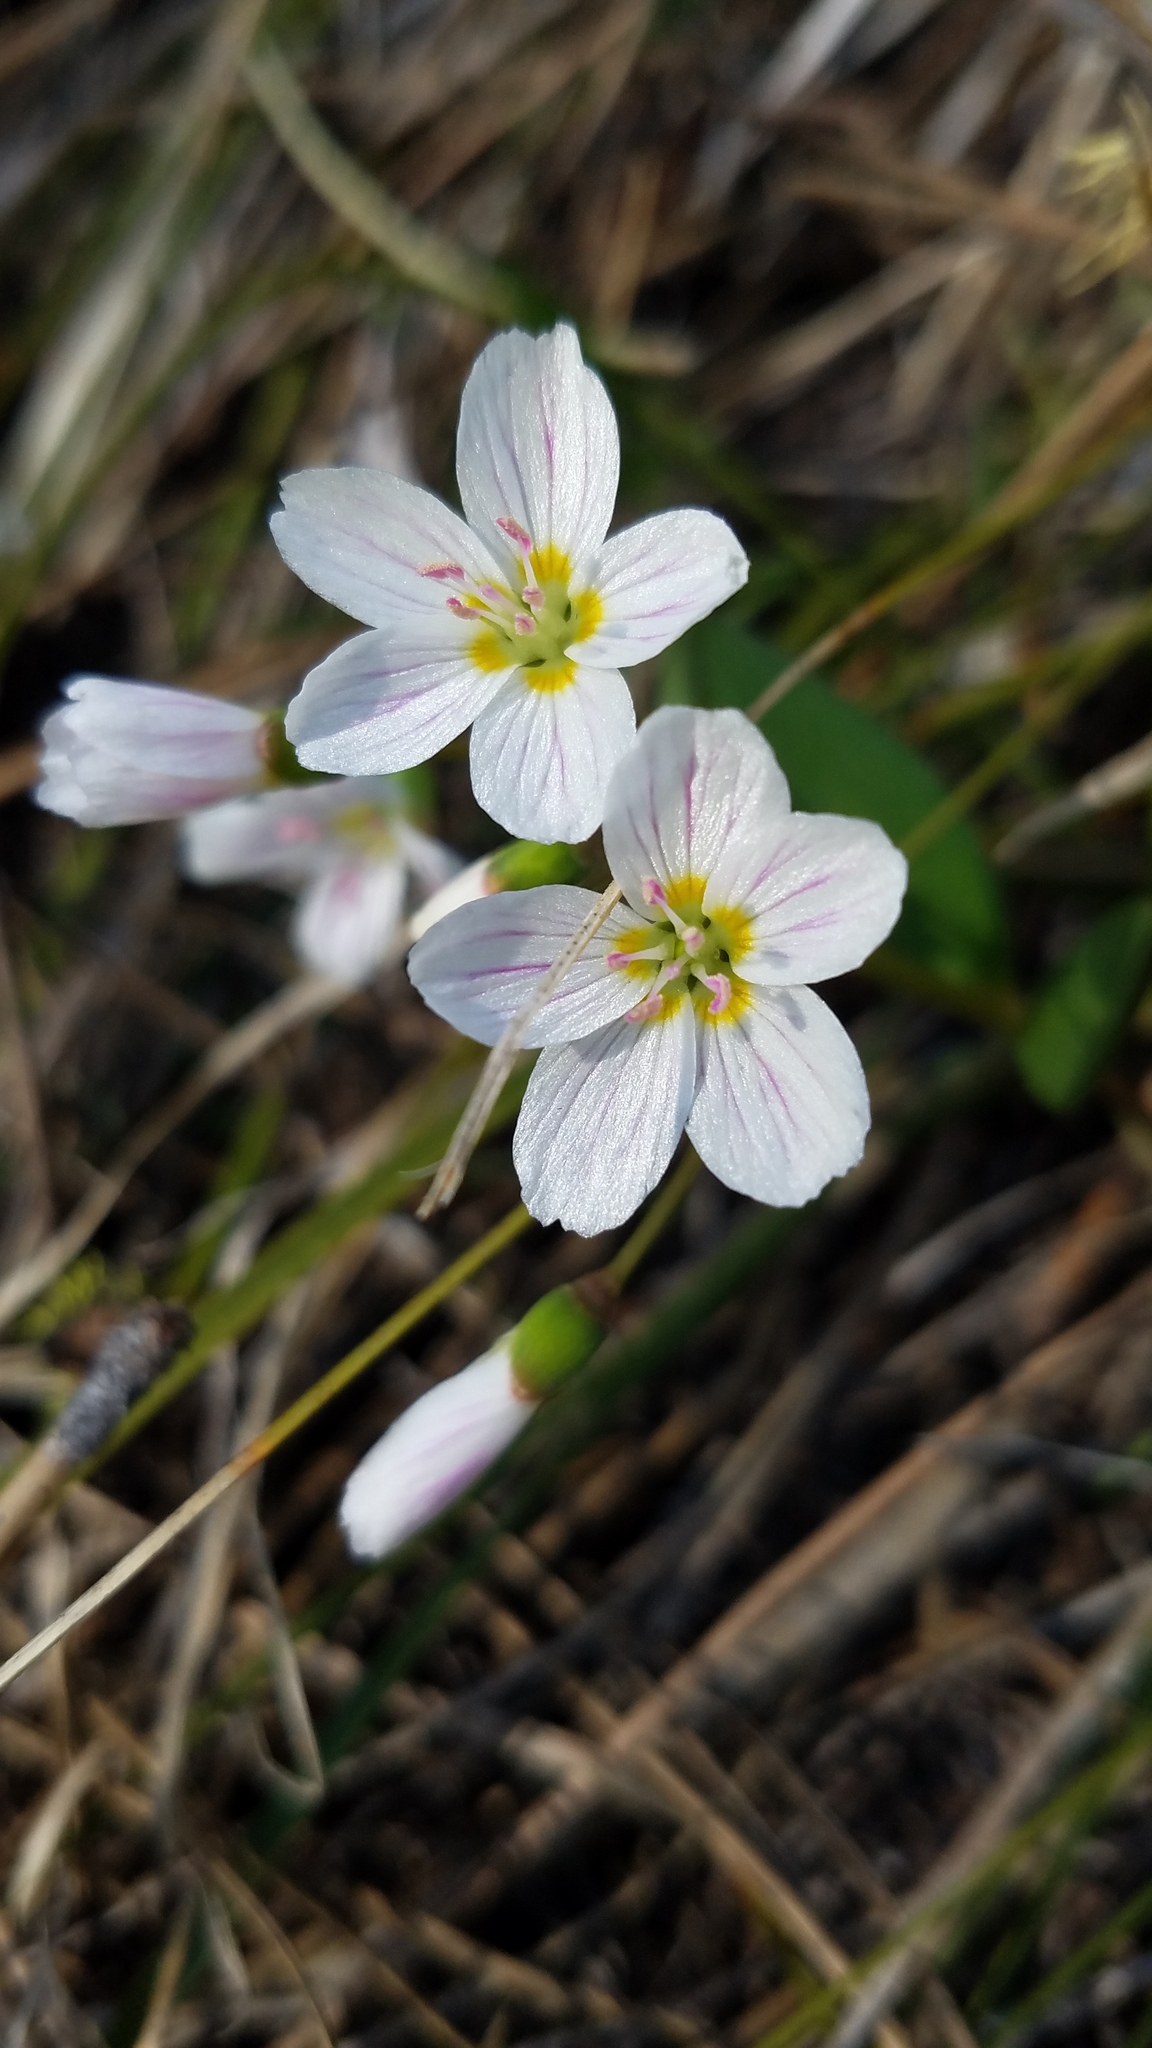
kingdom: Plantae
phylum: Tracheophyta
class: Magnoliopsida
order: Caryophyllales
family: Montiaceae
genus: Claytonia
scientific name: Claytonia lanceolata
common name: Western spring-beauty
